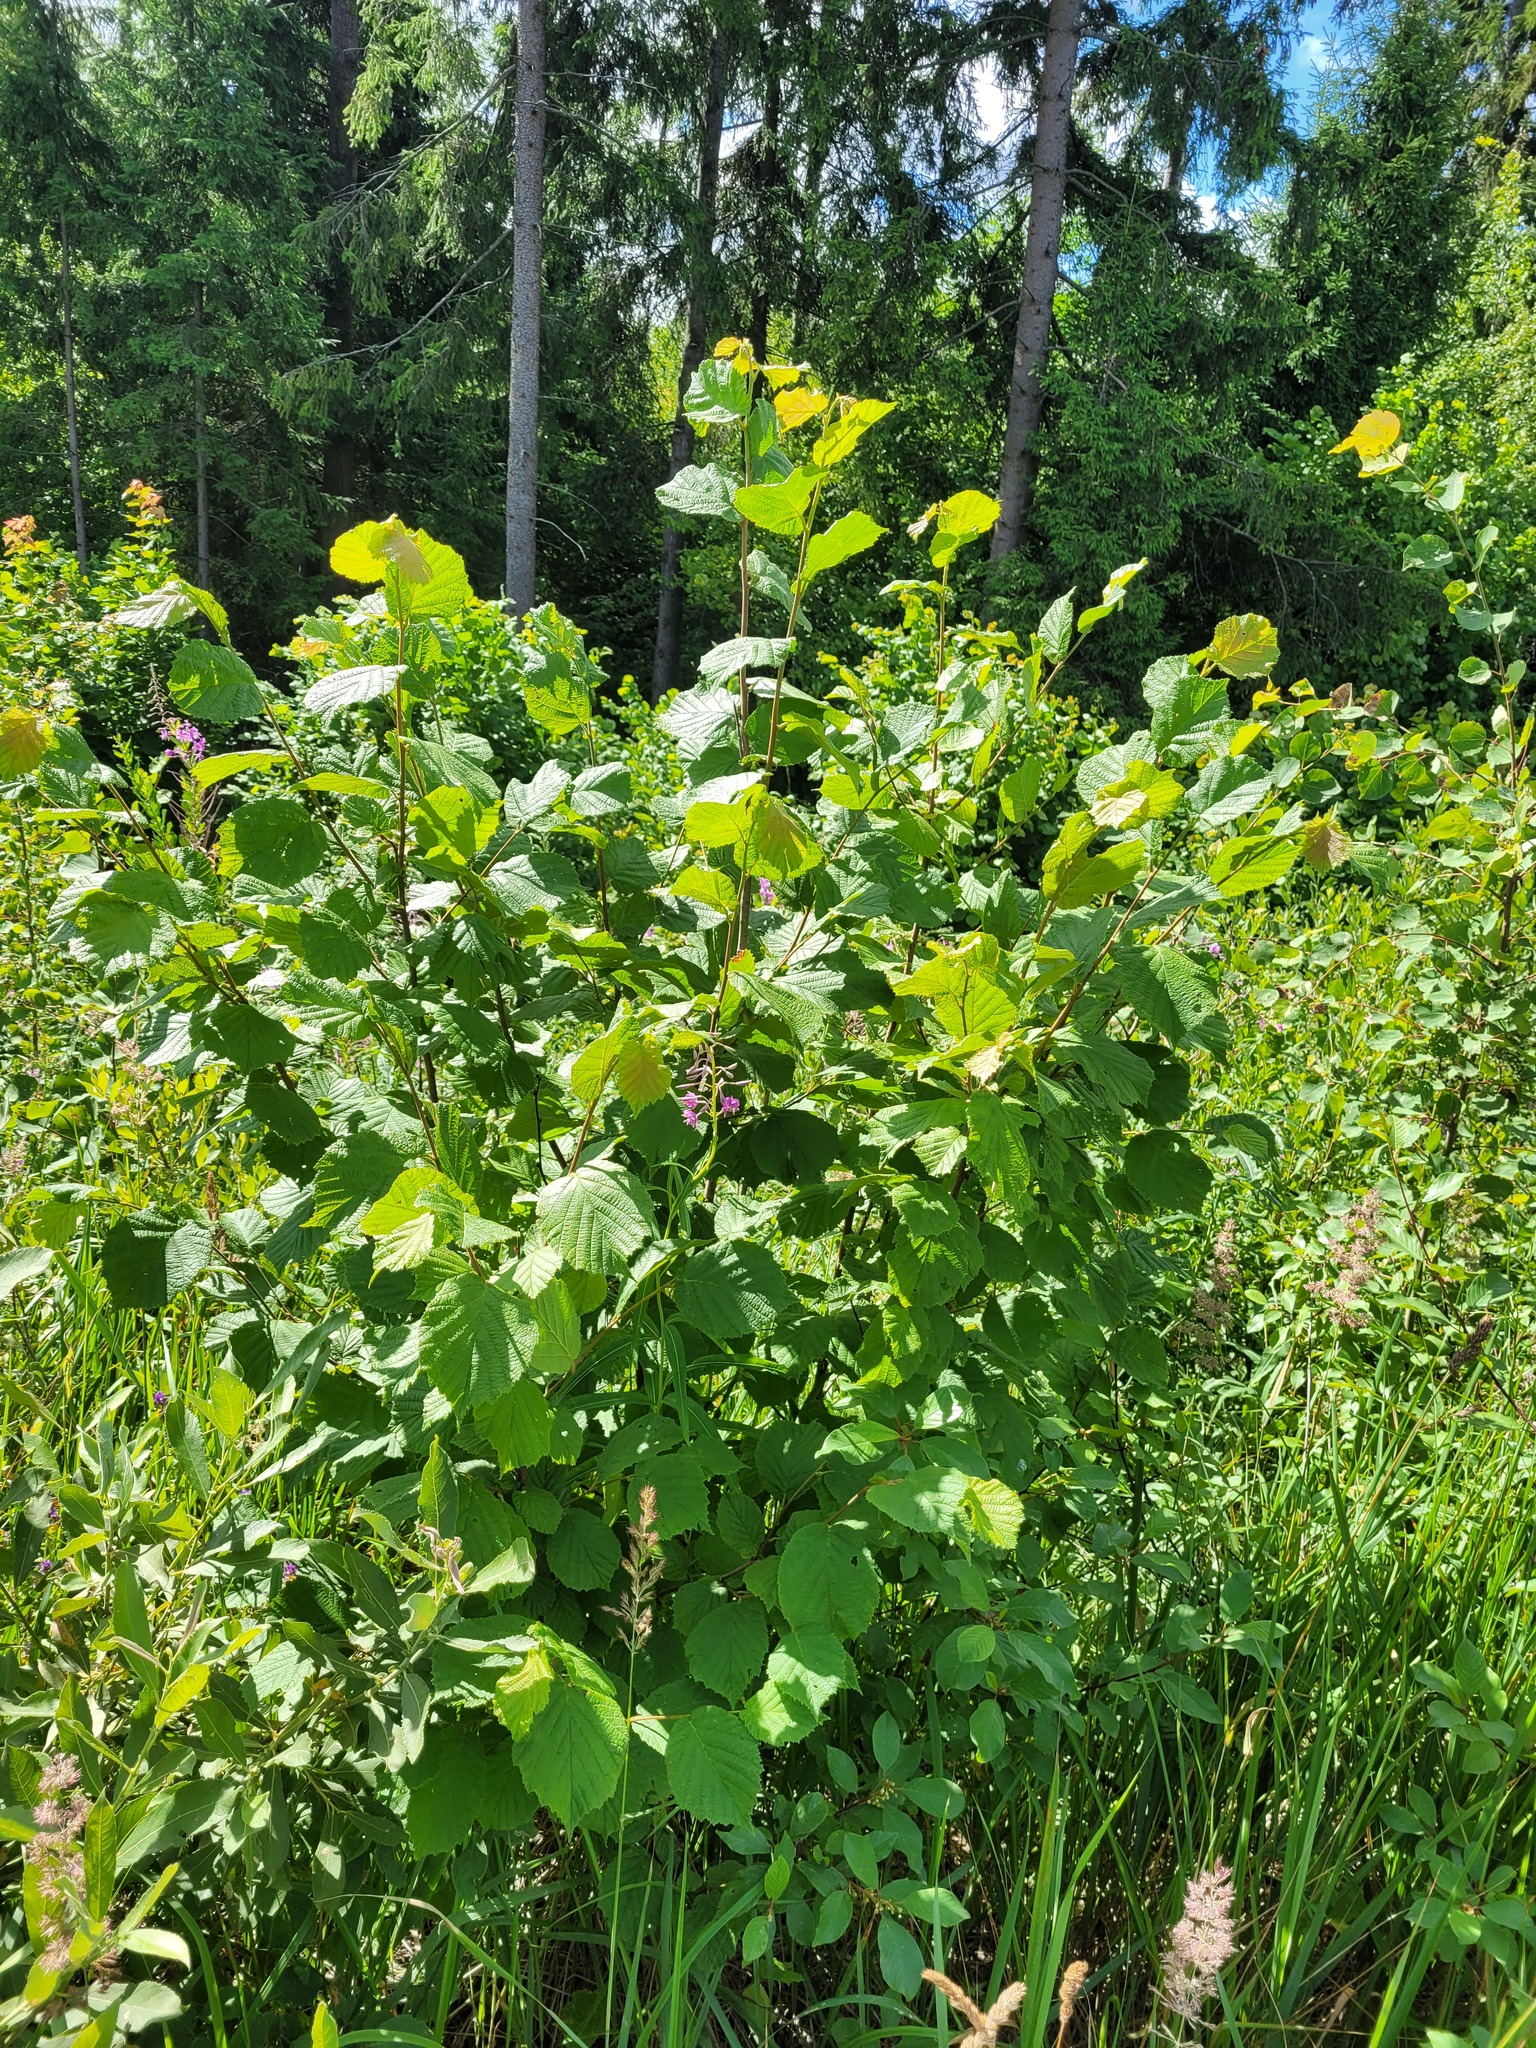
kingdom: Plantae
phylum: Tracheophyta
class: Magnoliopsida
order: Fagales
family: Betulaceae
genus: Corylus
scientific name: Corylus avellana
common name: European hazel
